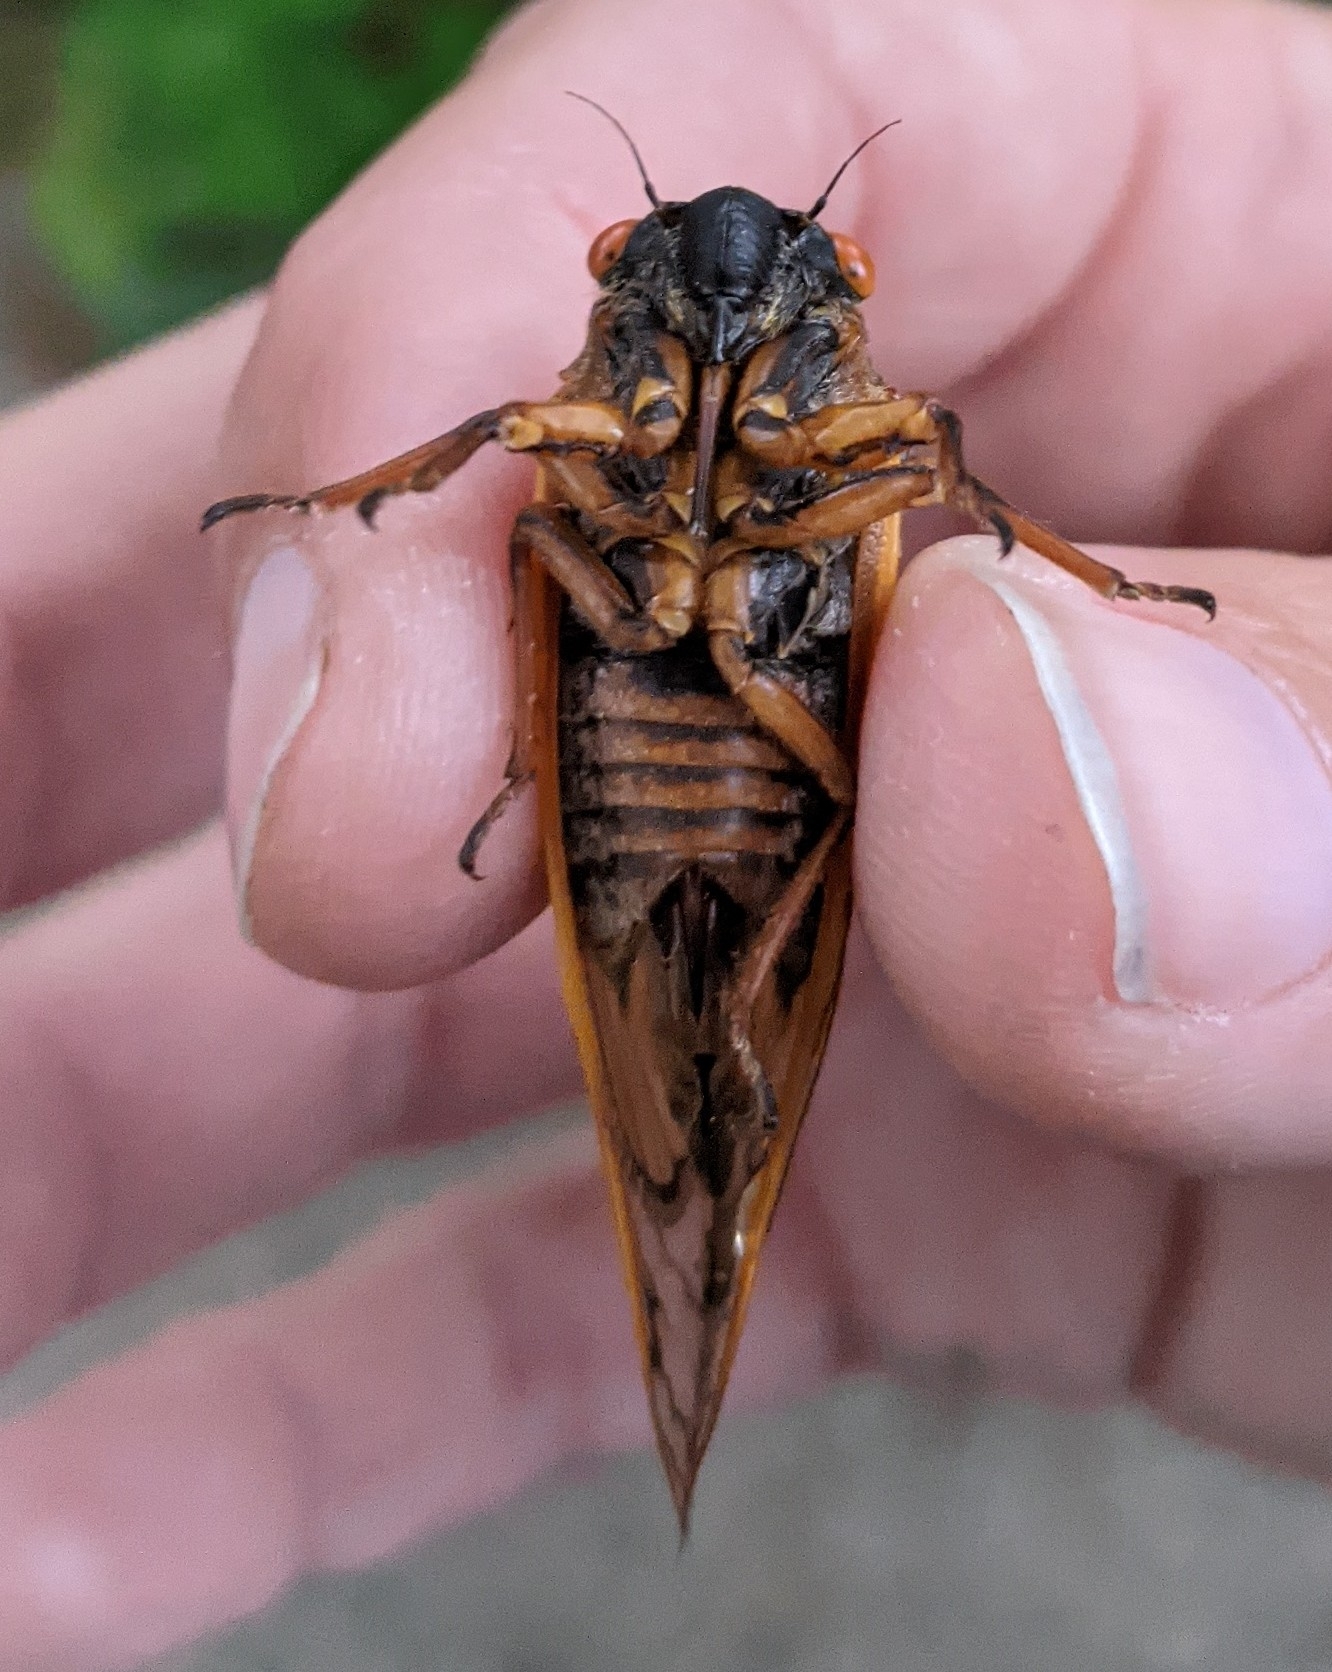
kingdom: Animalia
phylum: Arthropoda
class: Insecta
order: Hemiptera
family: Cicadidae
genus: Magicicada
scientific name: Magicicada septendecim
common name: Periodical cicada
